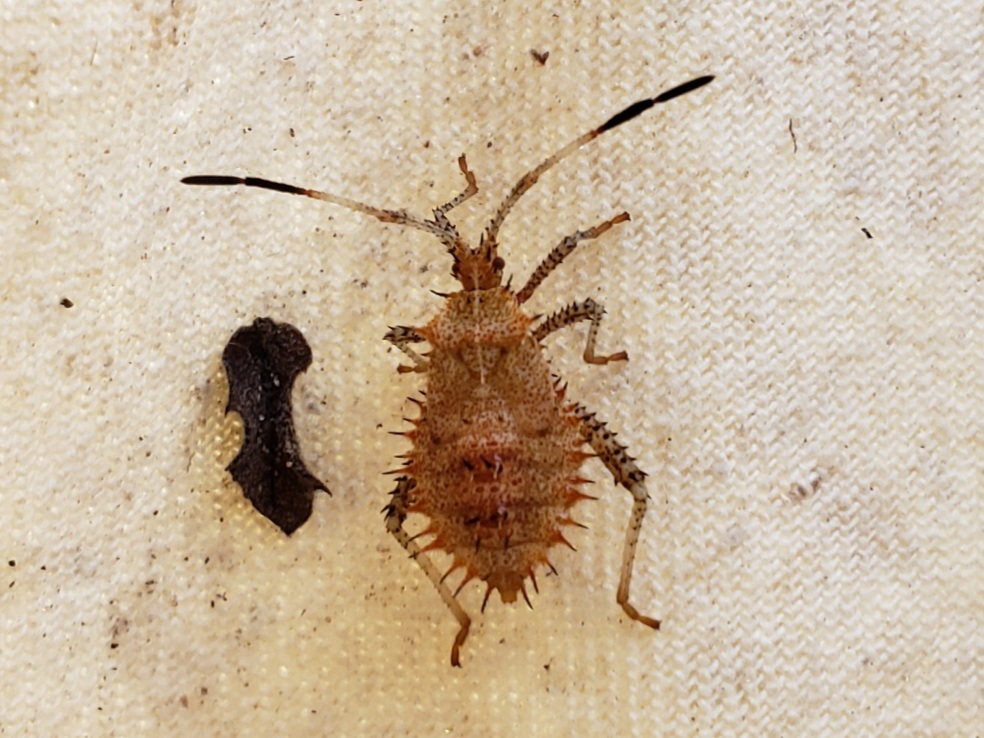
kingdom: Animalia
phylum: Arthropoda
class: Insecta
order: Hemiptera
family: Coreidae
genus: Euthochtha
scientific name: Euthochtha galeator
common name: Helmeted squash bug
